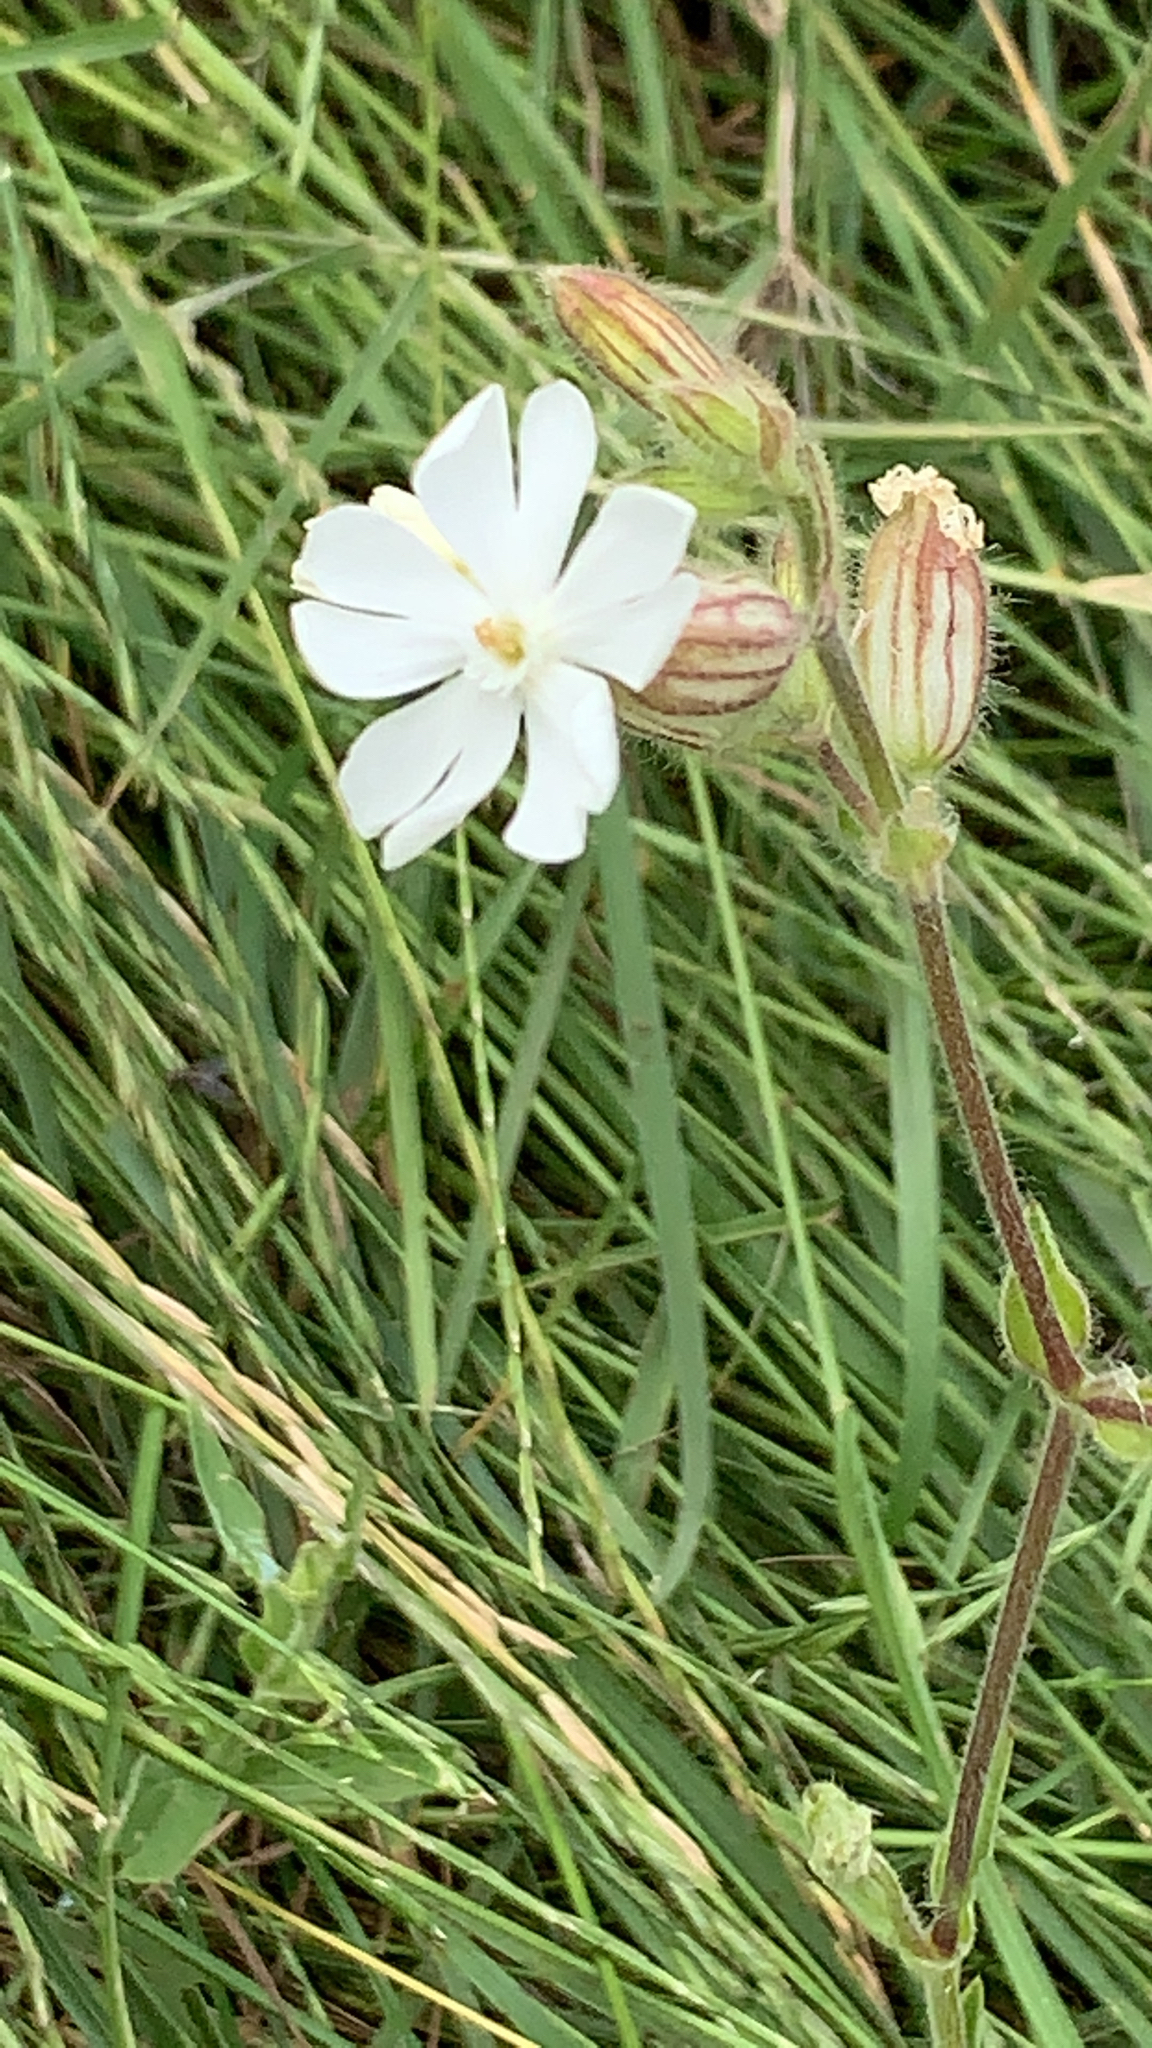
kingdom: Plantae
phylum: Tracheophyta
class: Magnoliopsida
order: Caryophyllales
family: Caryophyllaceae
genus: Silene
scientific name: Silene latifolia
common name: White campion
